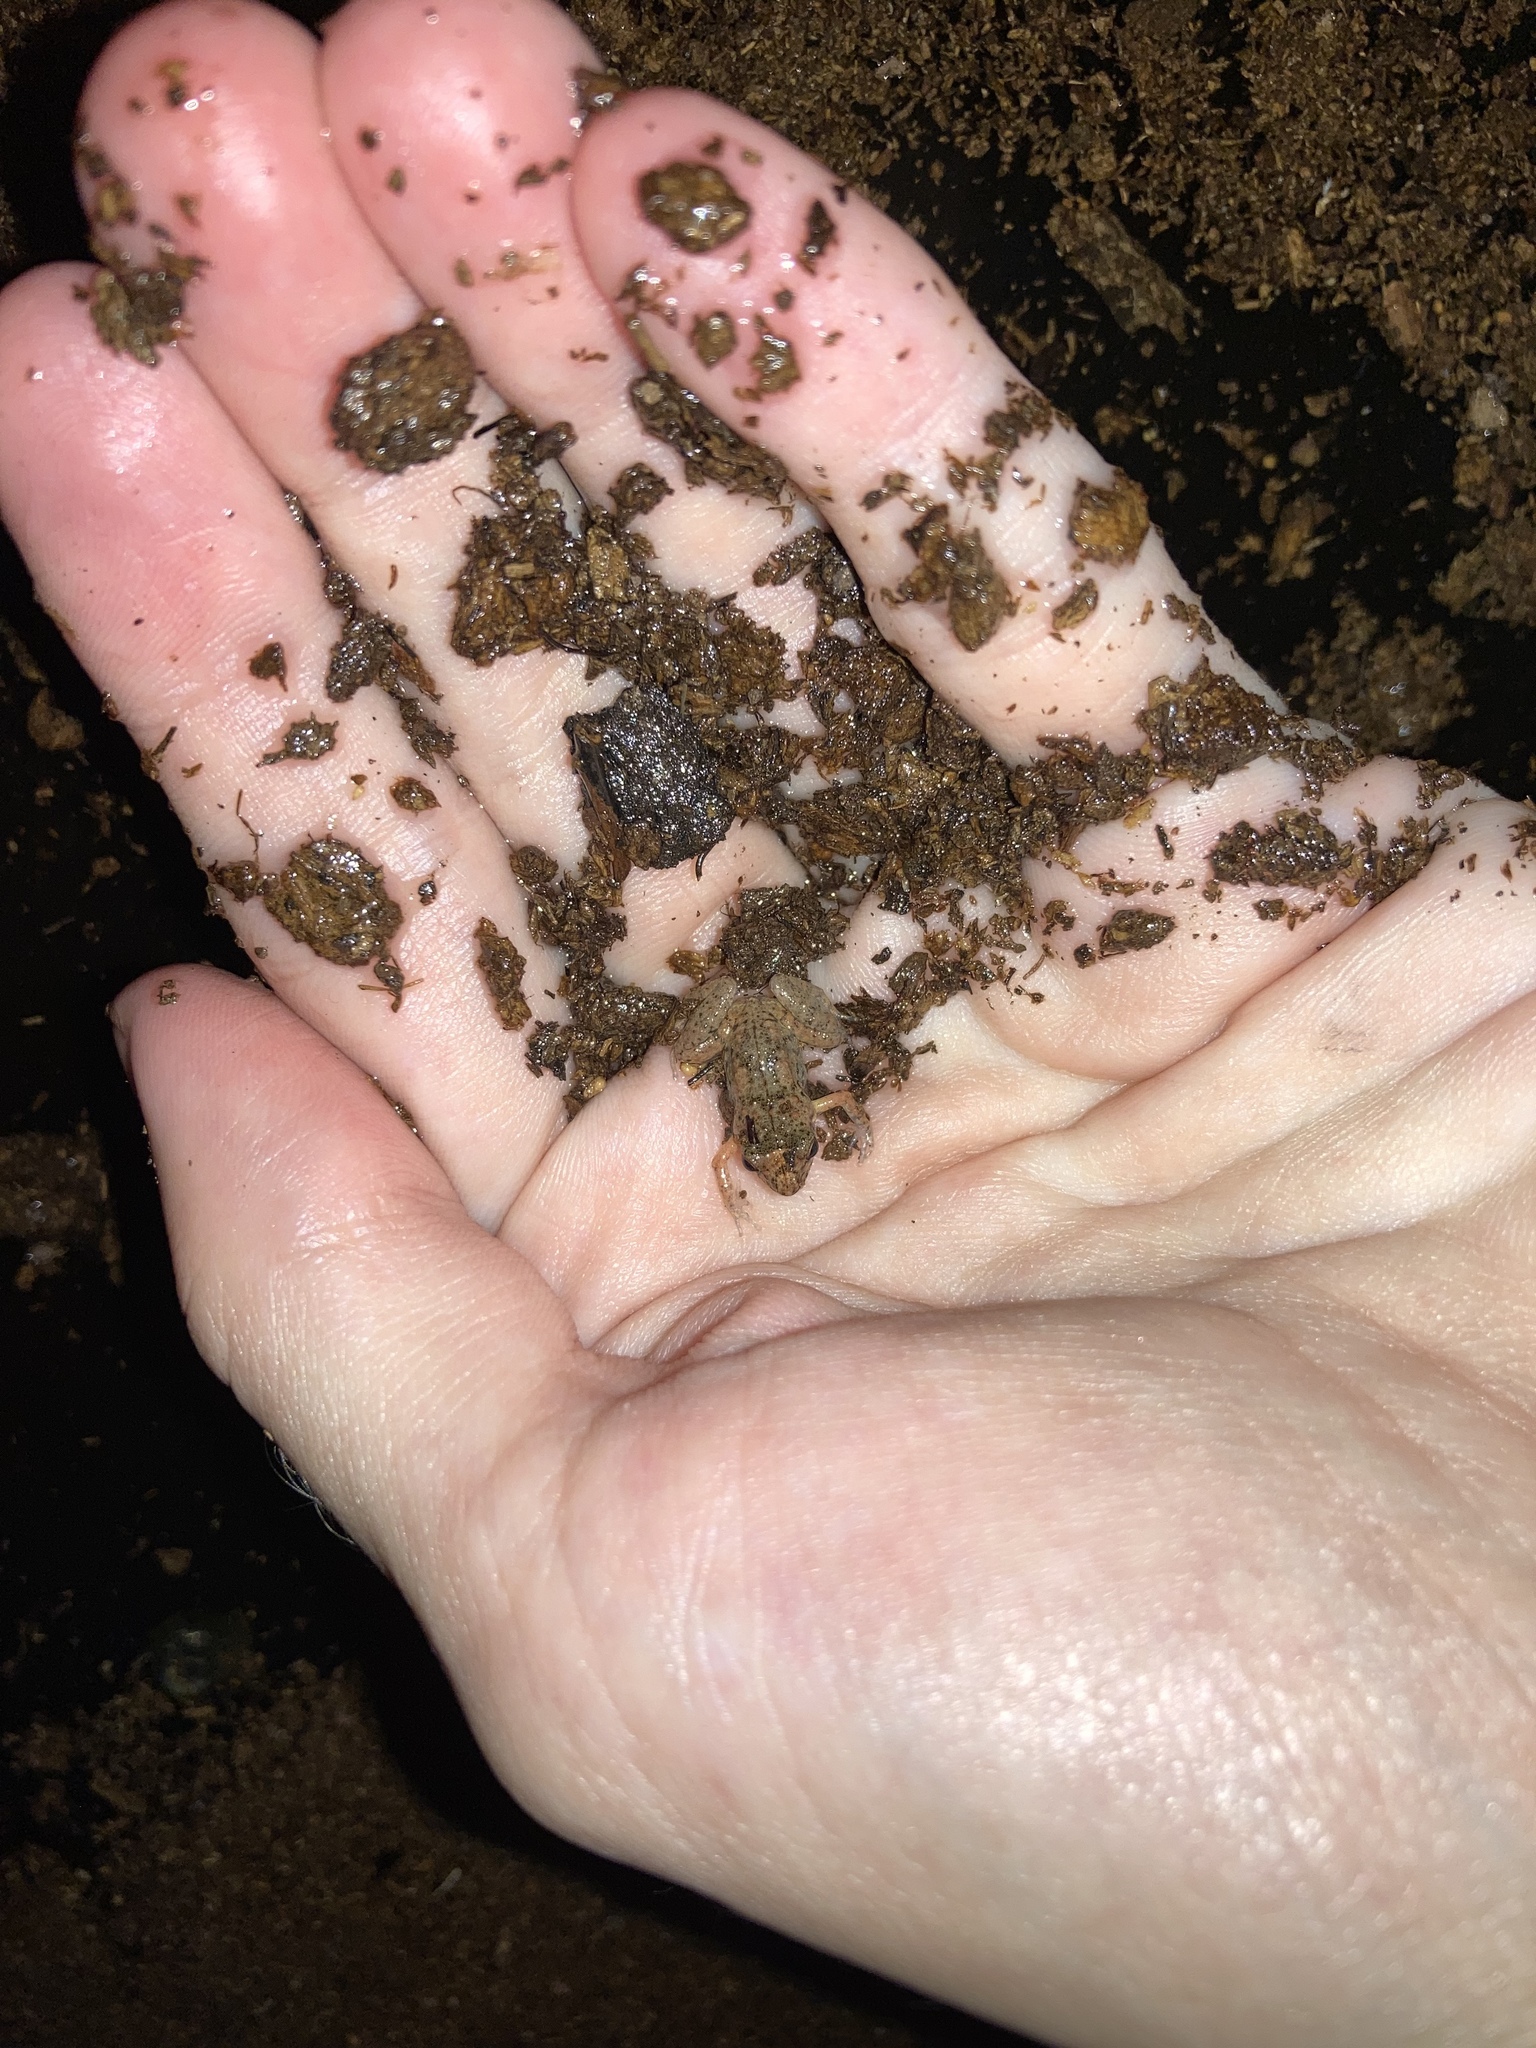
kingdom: Animalia
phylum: Chordata
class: Amphibia
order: Anura
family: Eleutherodactylidae
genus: Eleutherodactylus
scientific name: Eleutherodactylus planirostris
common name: Greenhouse frog
